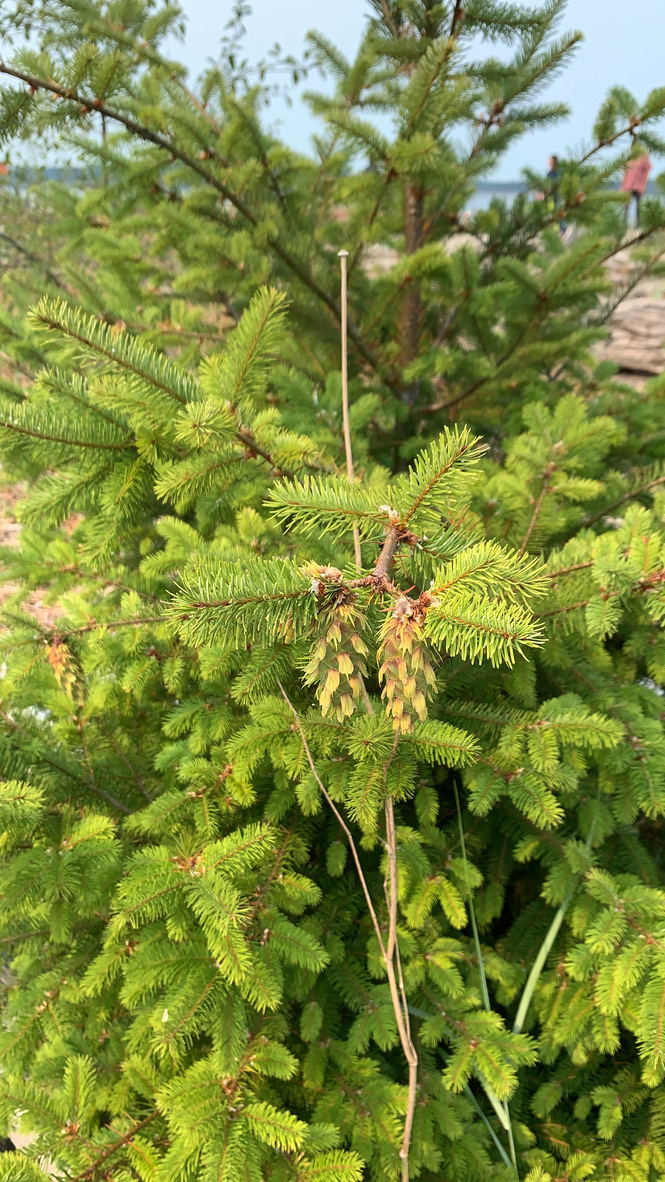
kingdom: Plantae
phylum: Tracheophyta
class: Pinopsida
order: Pinales
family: Pinaceae
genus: Pseudotsuga
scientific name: Pseudotsuga menziesii
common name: Douglas fir
